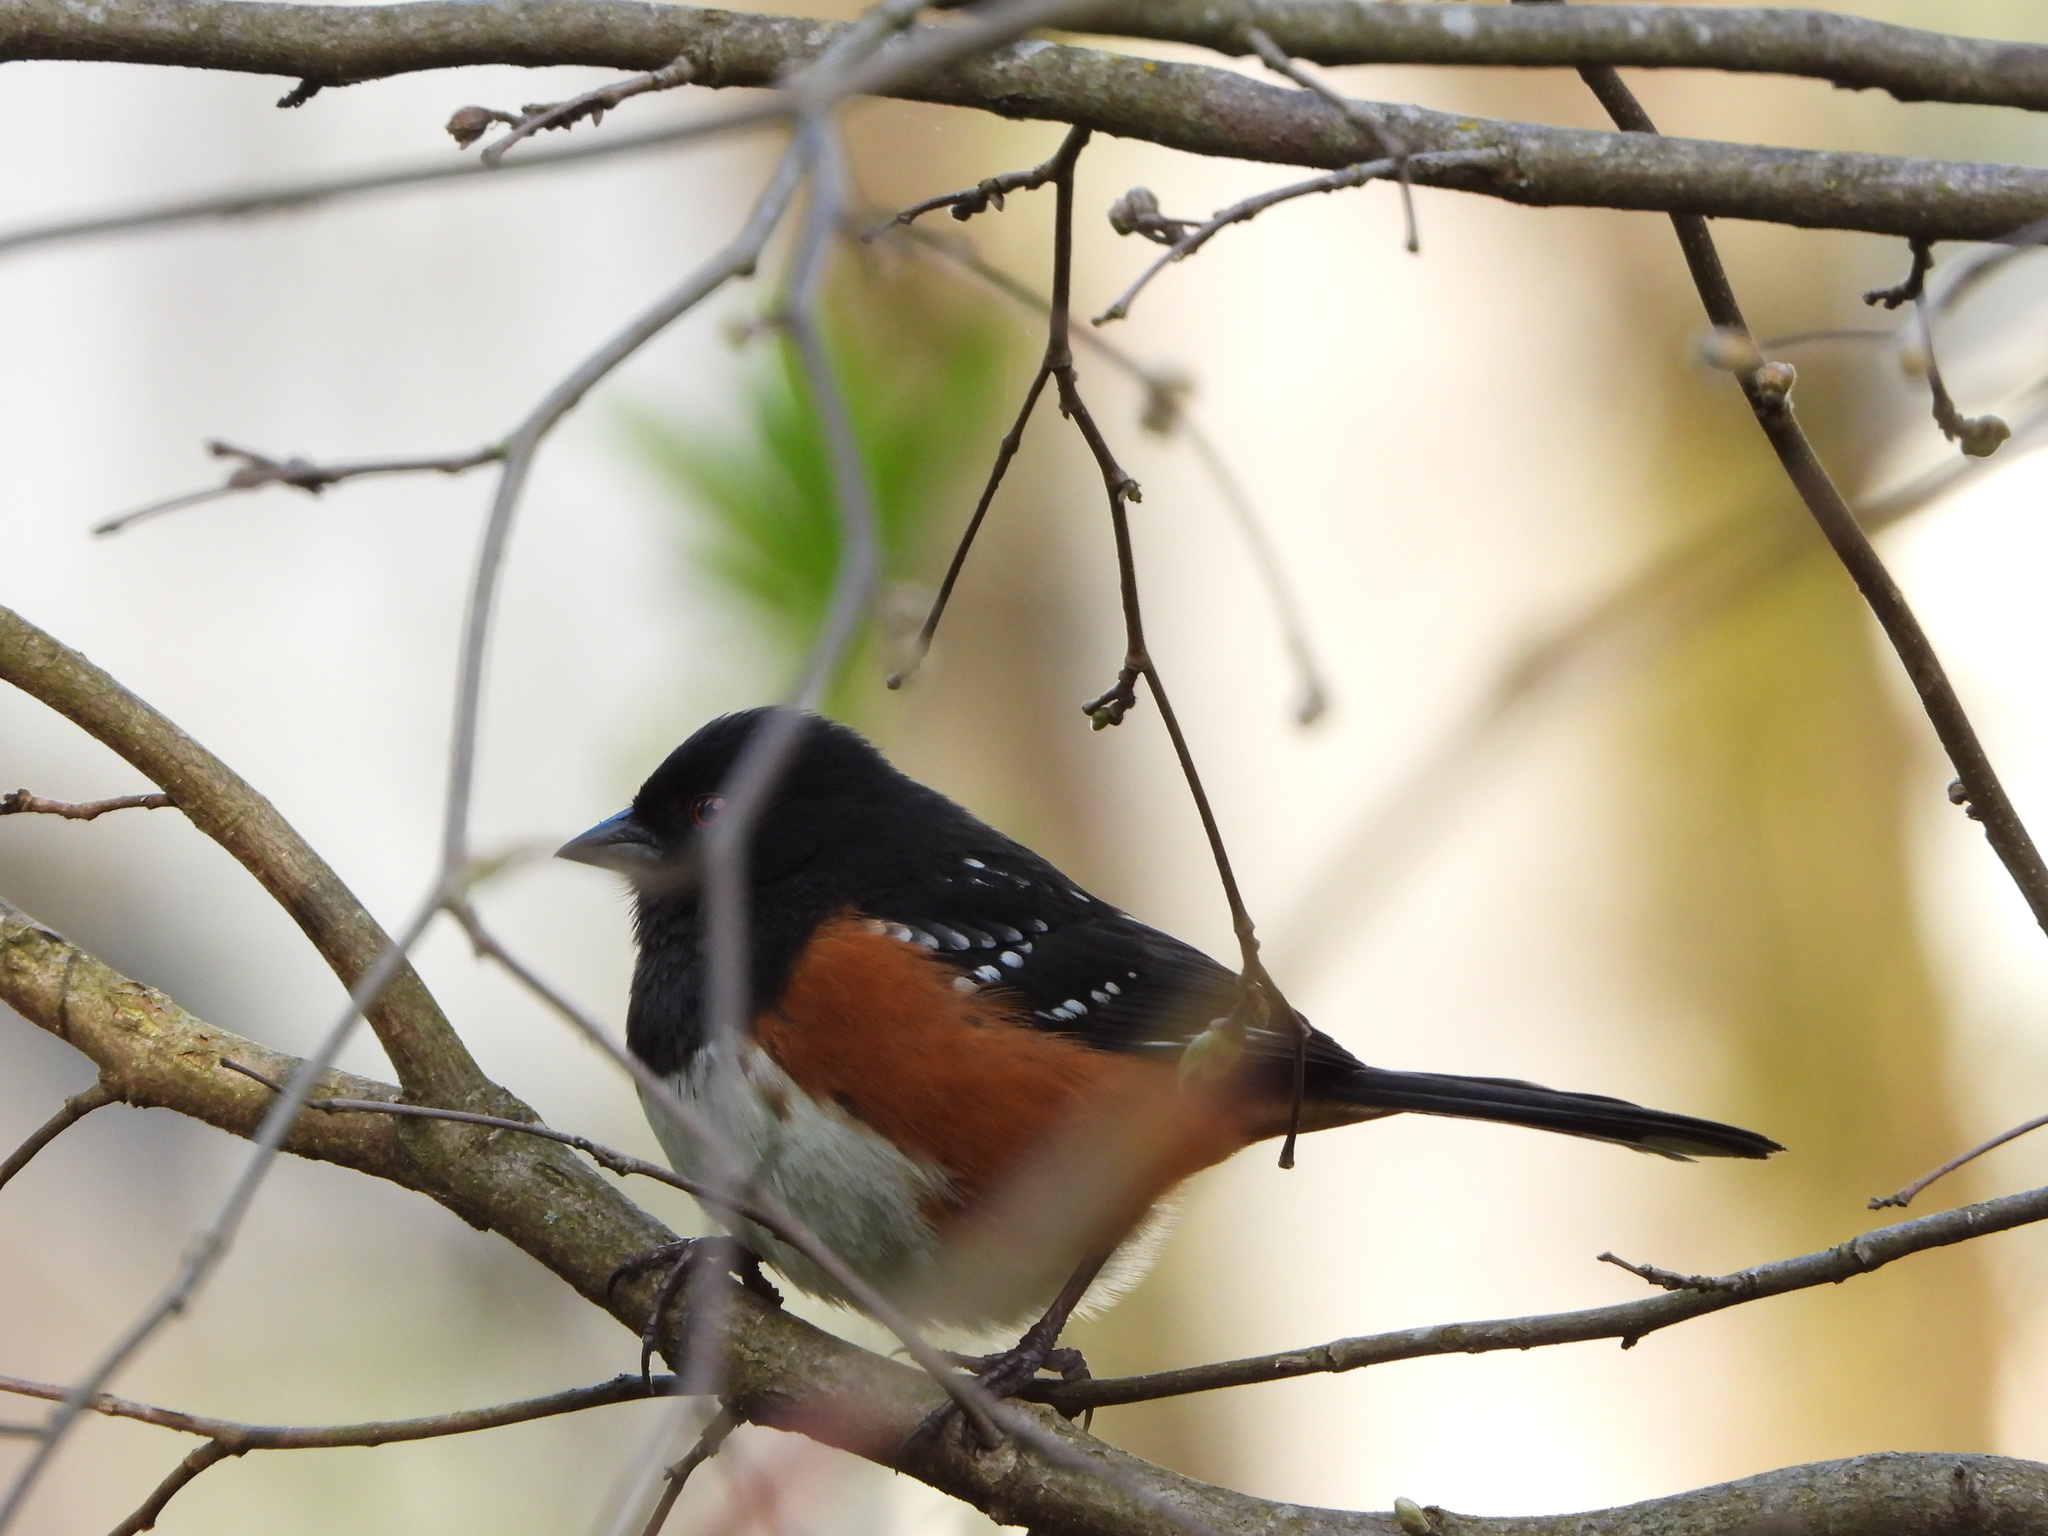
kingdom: Animalia
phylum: Chordata
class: Aves
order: Passeriformes
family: Passerellidae
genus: Pipilo
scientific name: Pipilo maculatus
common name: Spotted towhee
